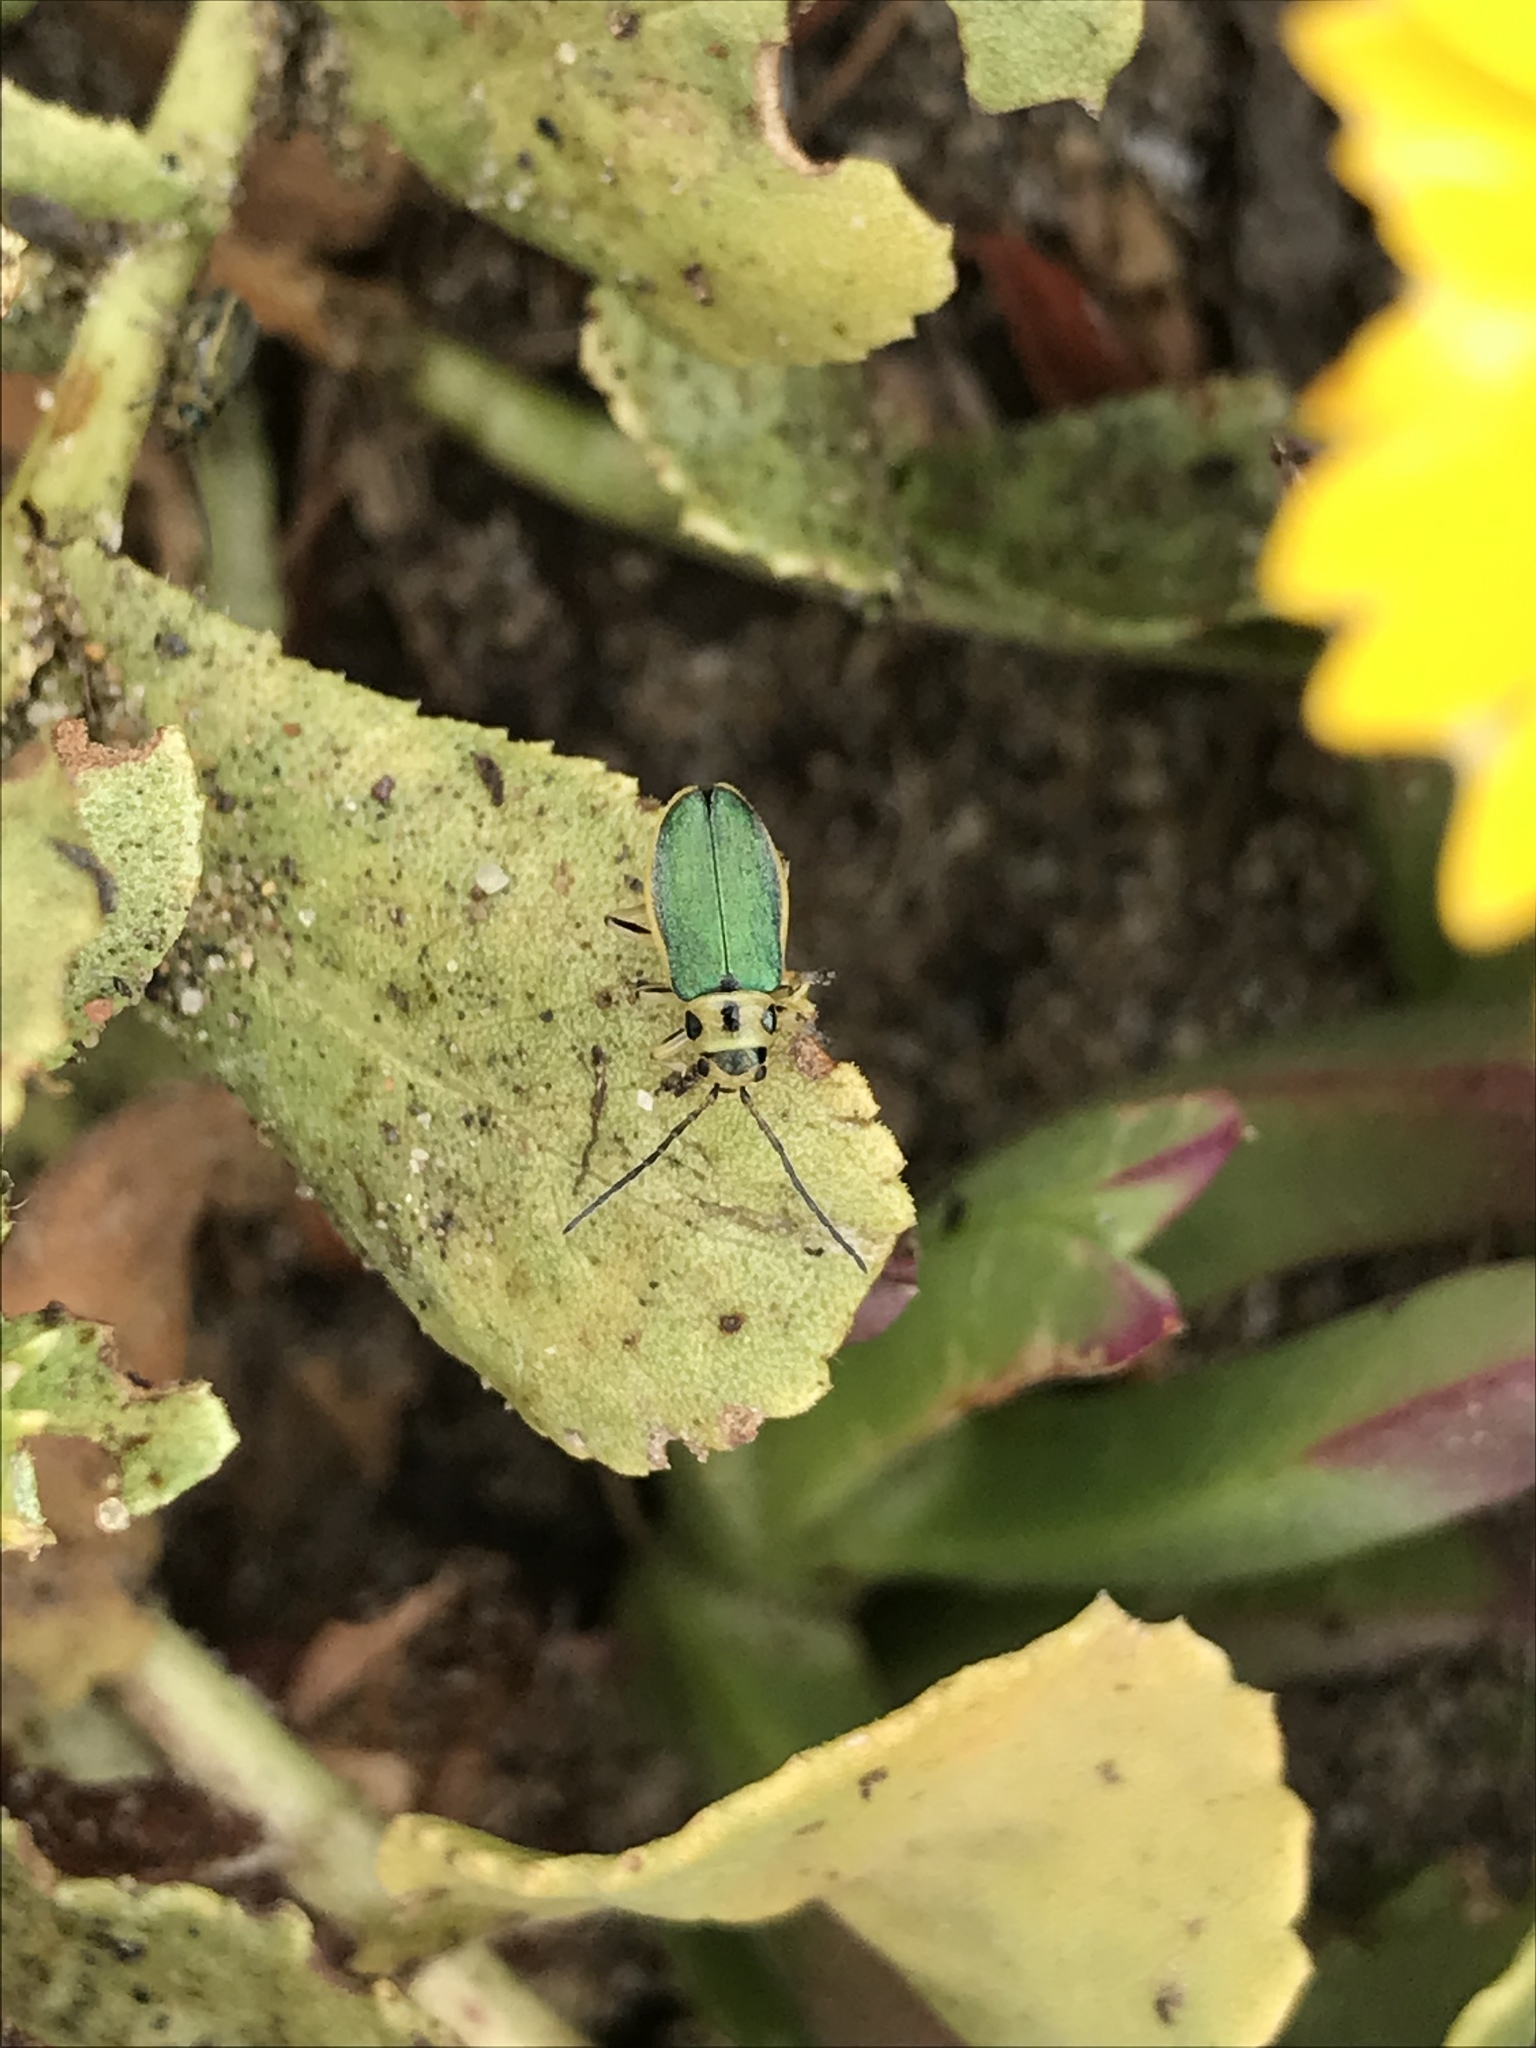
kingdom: Animalia
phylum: Arthropoda
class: Insecta
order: Coleoptera
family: Chrysomelidae
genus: Trirhabda
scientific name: Trirhabda flavolimbata
